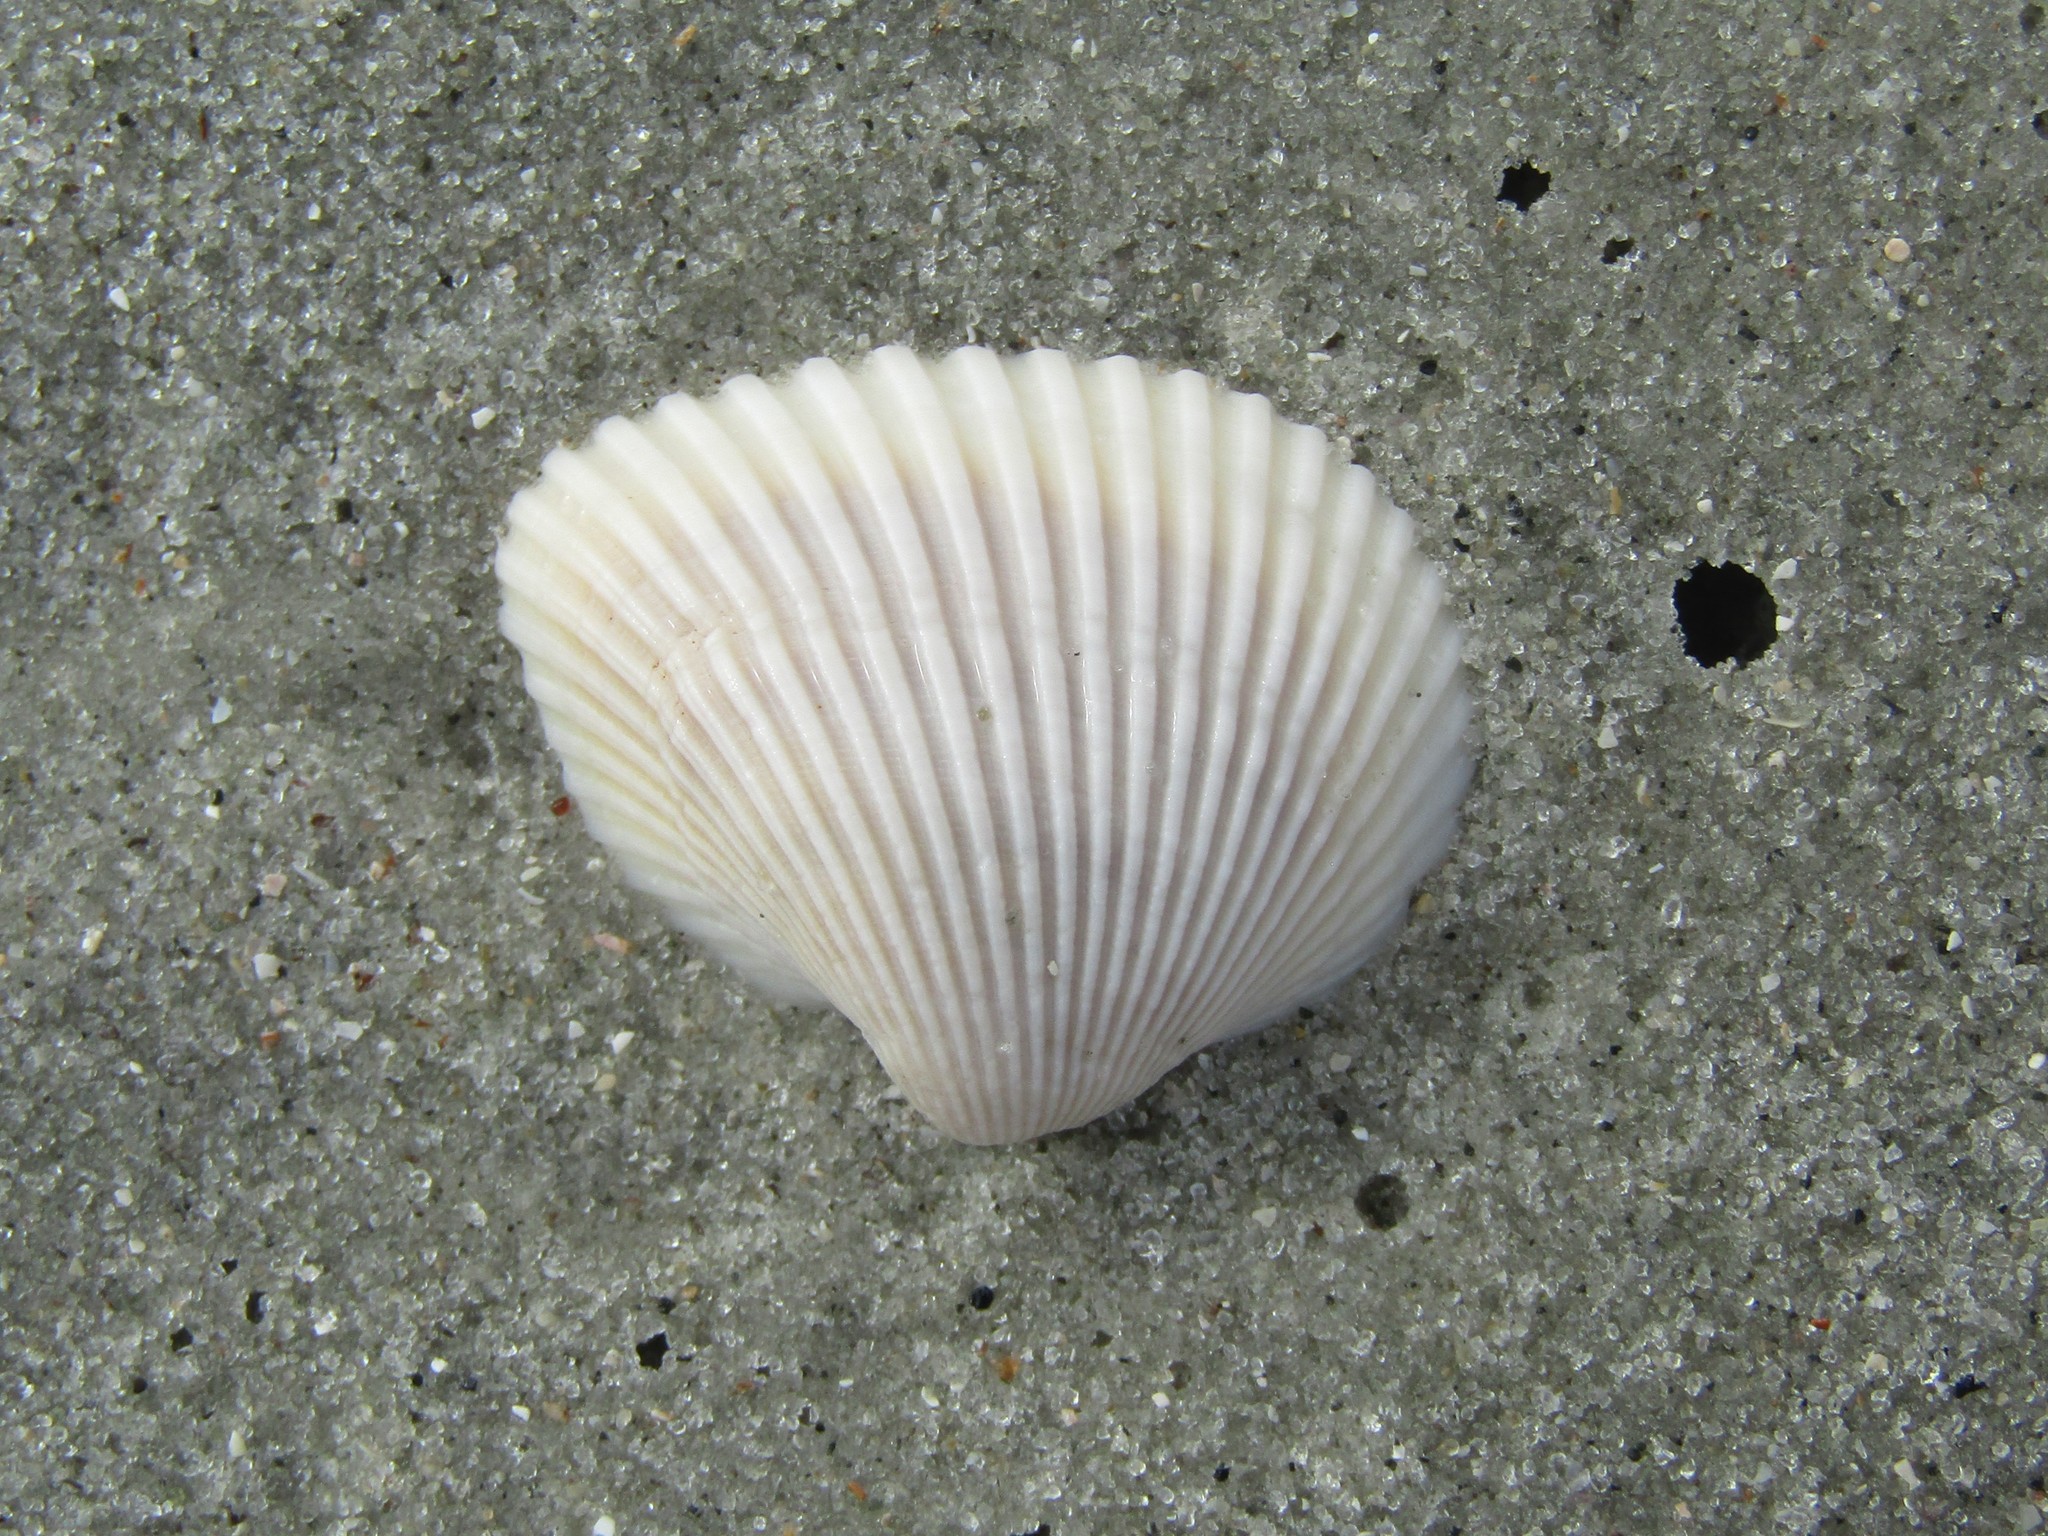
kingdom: Animalia
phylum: Mollusca
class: Bivalvia
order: Arcida
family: Noetiidae
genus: Noetia
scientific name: Noetia ponderosa
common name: Ponderous ark
